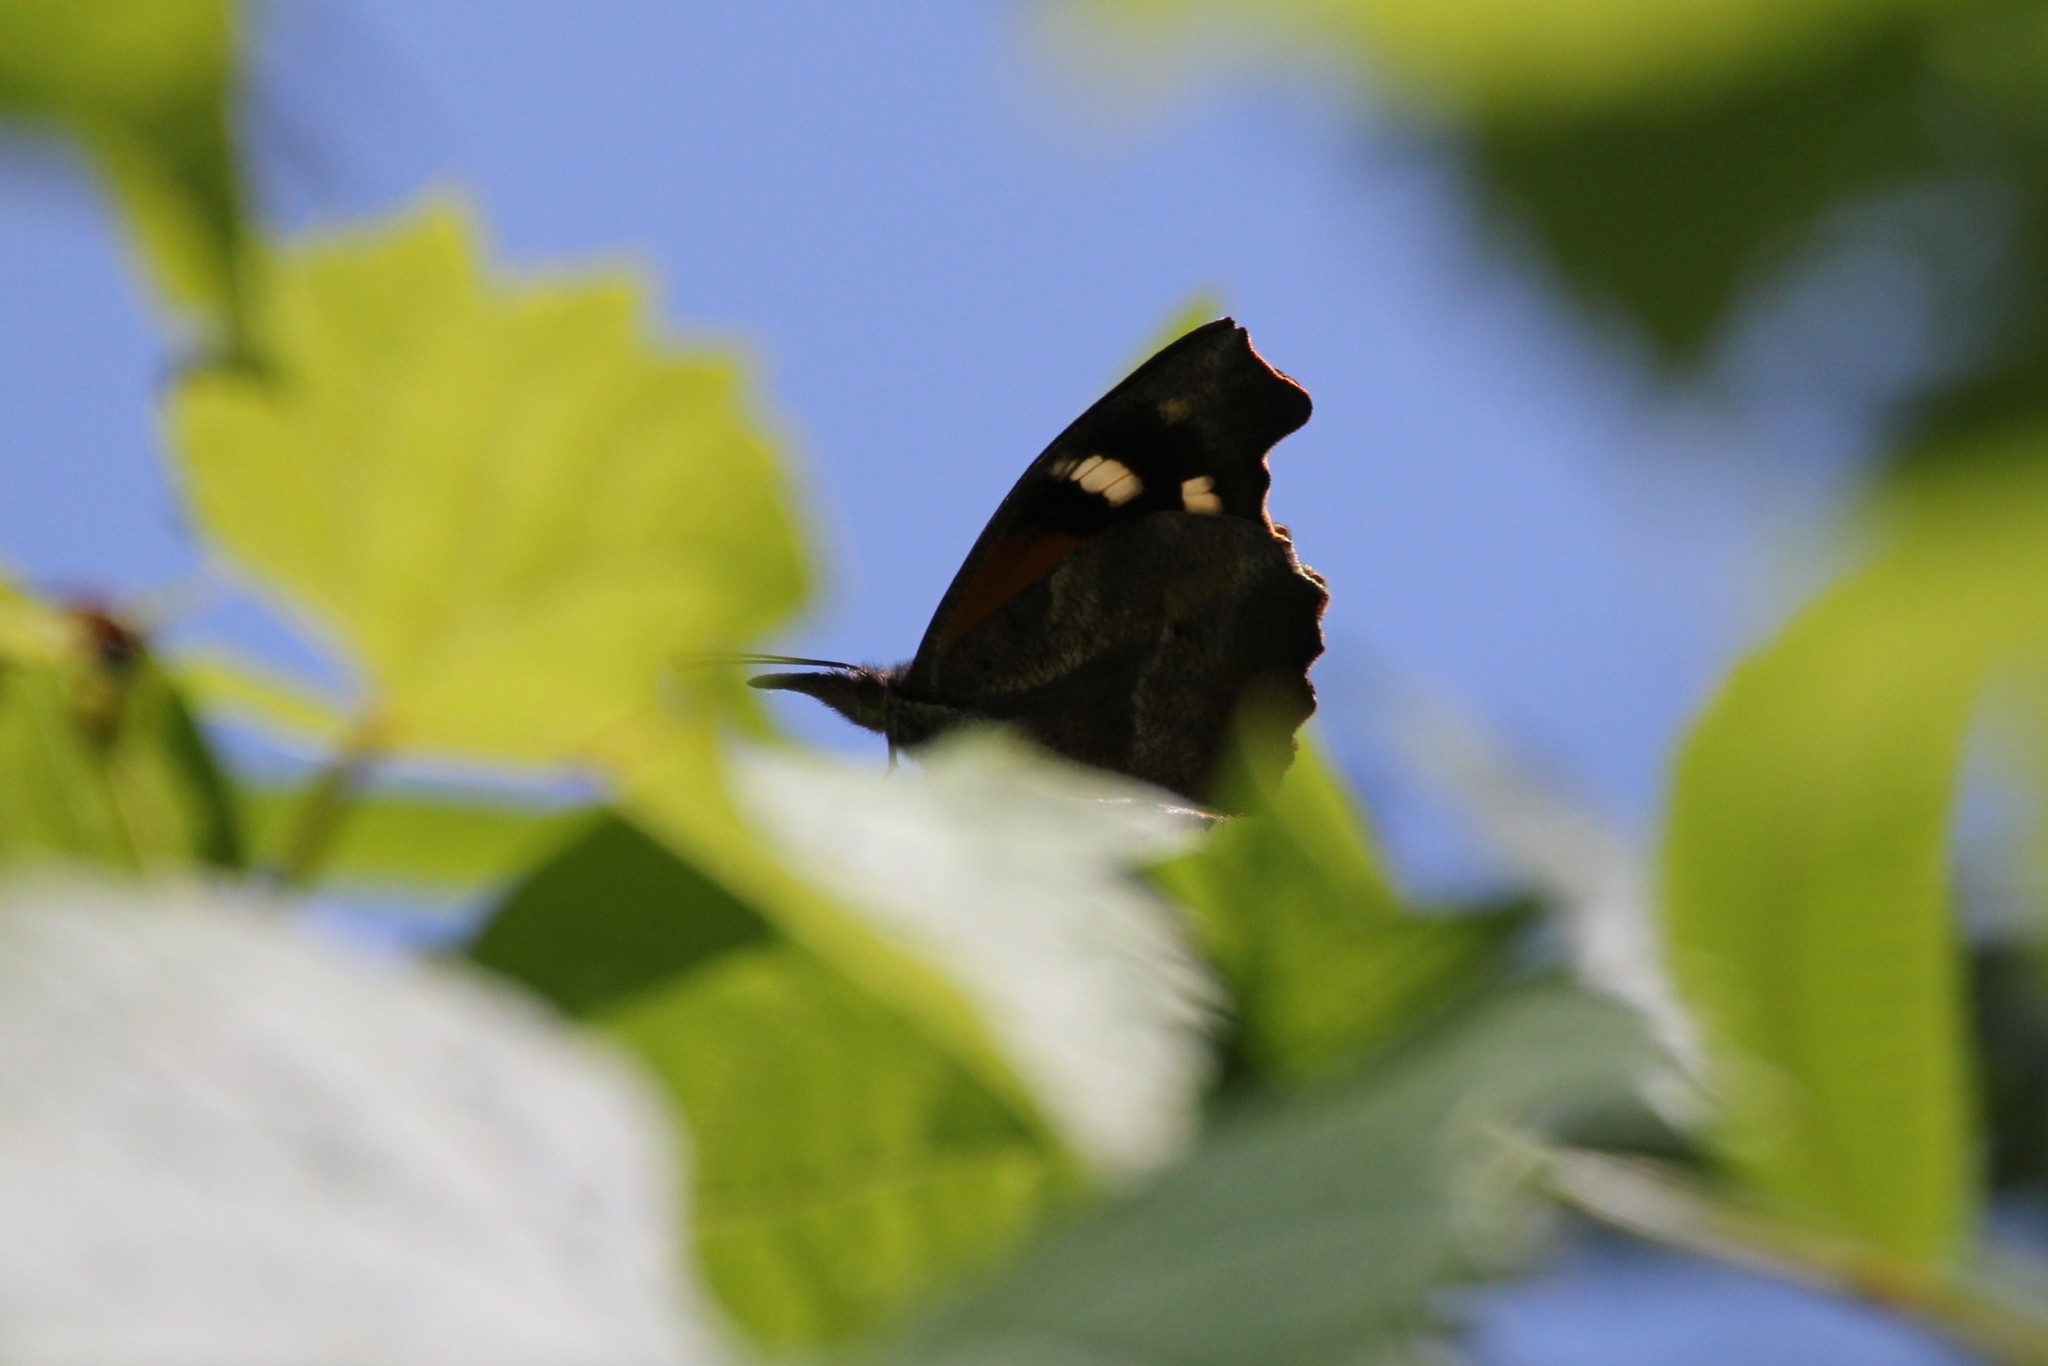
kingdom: Animalia
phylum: Arthropoda
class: Insecta
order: Lepidoptera
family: Nymphalidae
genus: Libytheana
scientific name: Libytheana carinenta
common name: American snout
